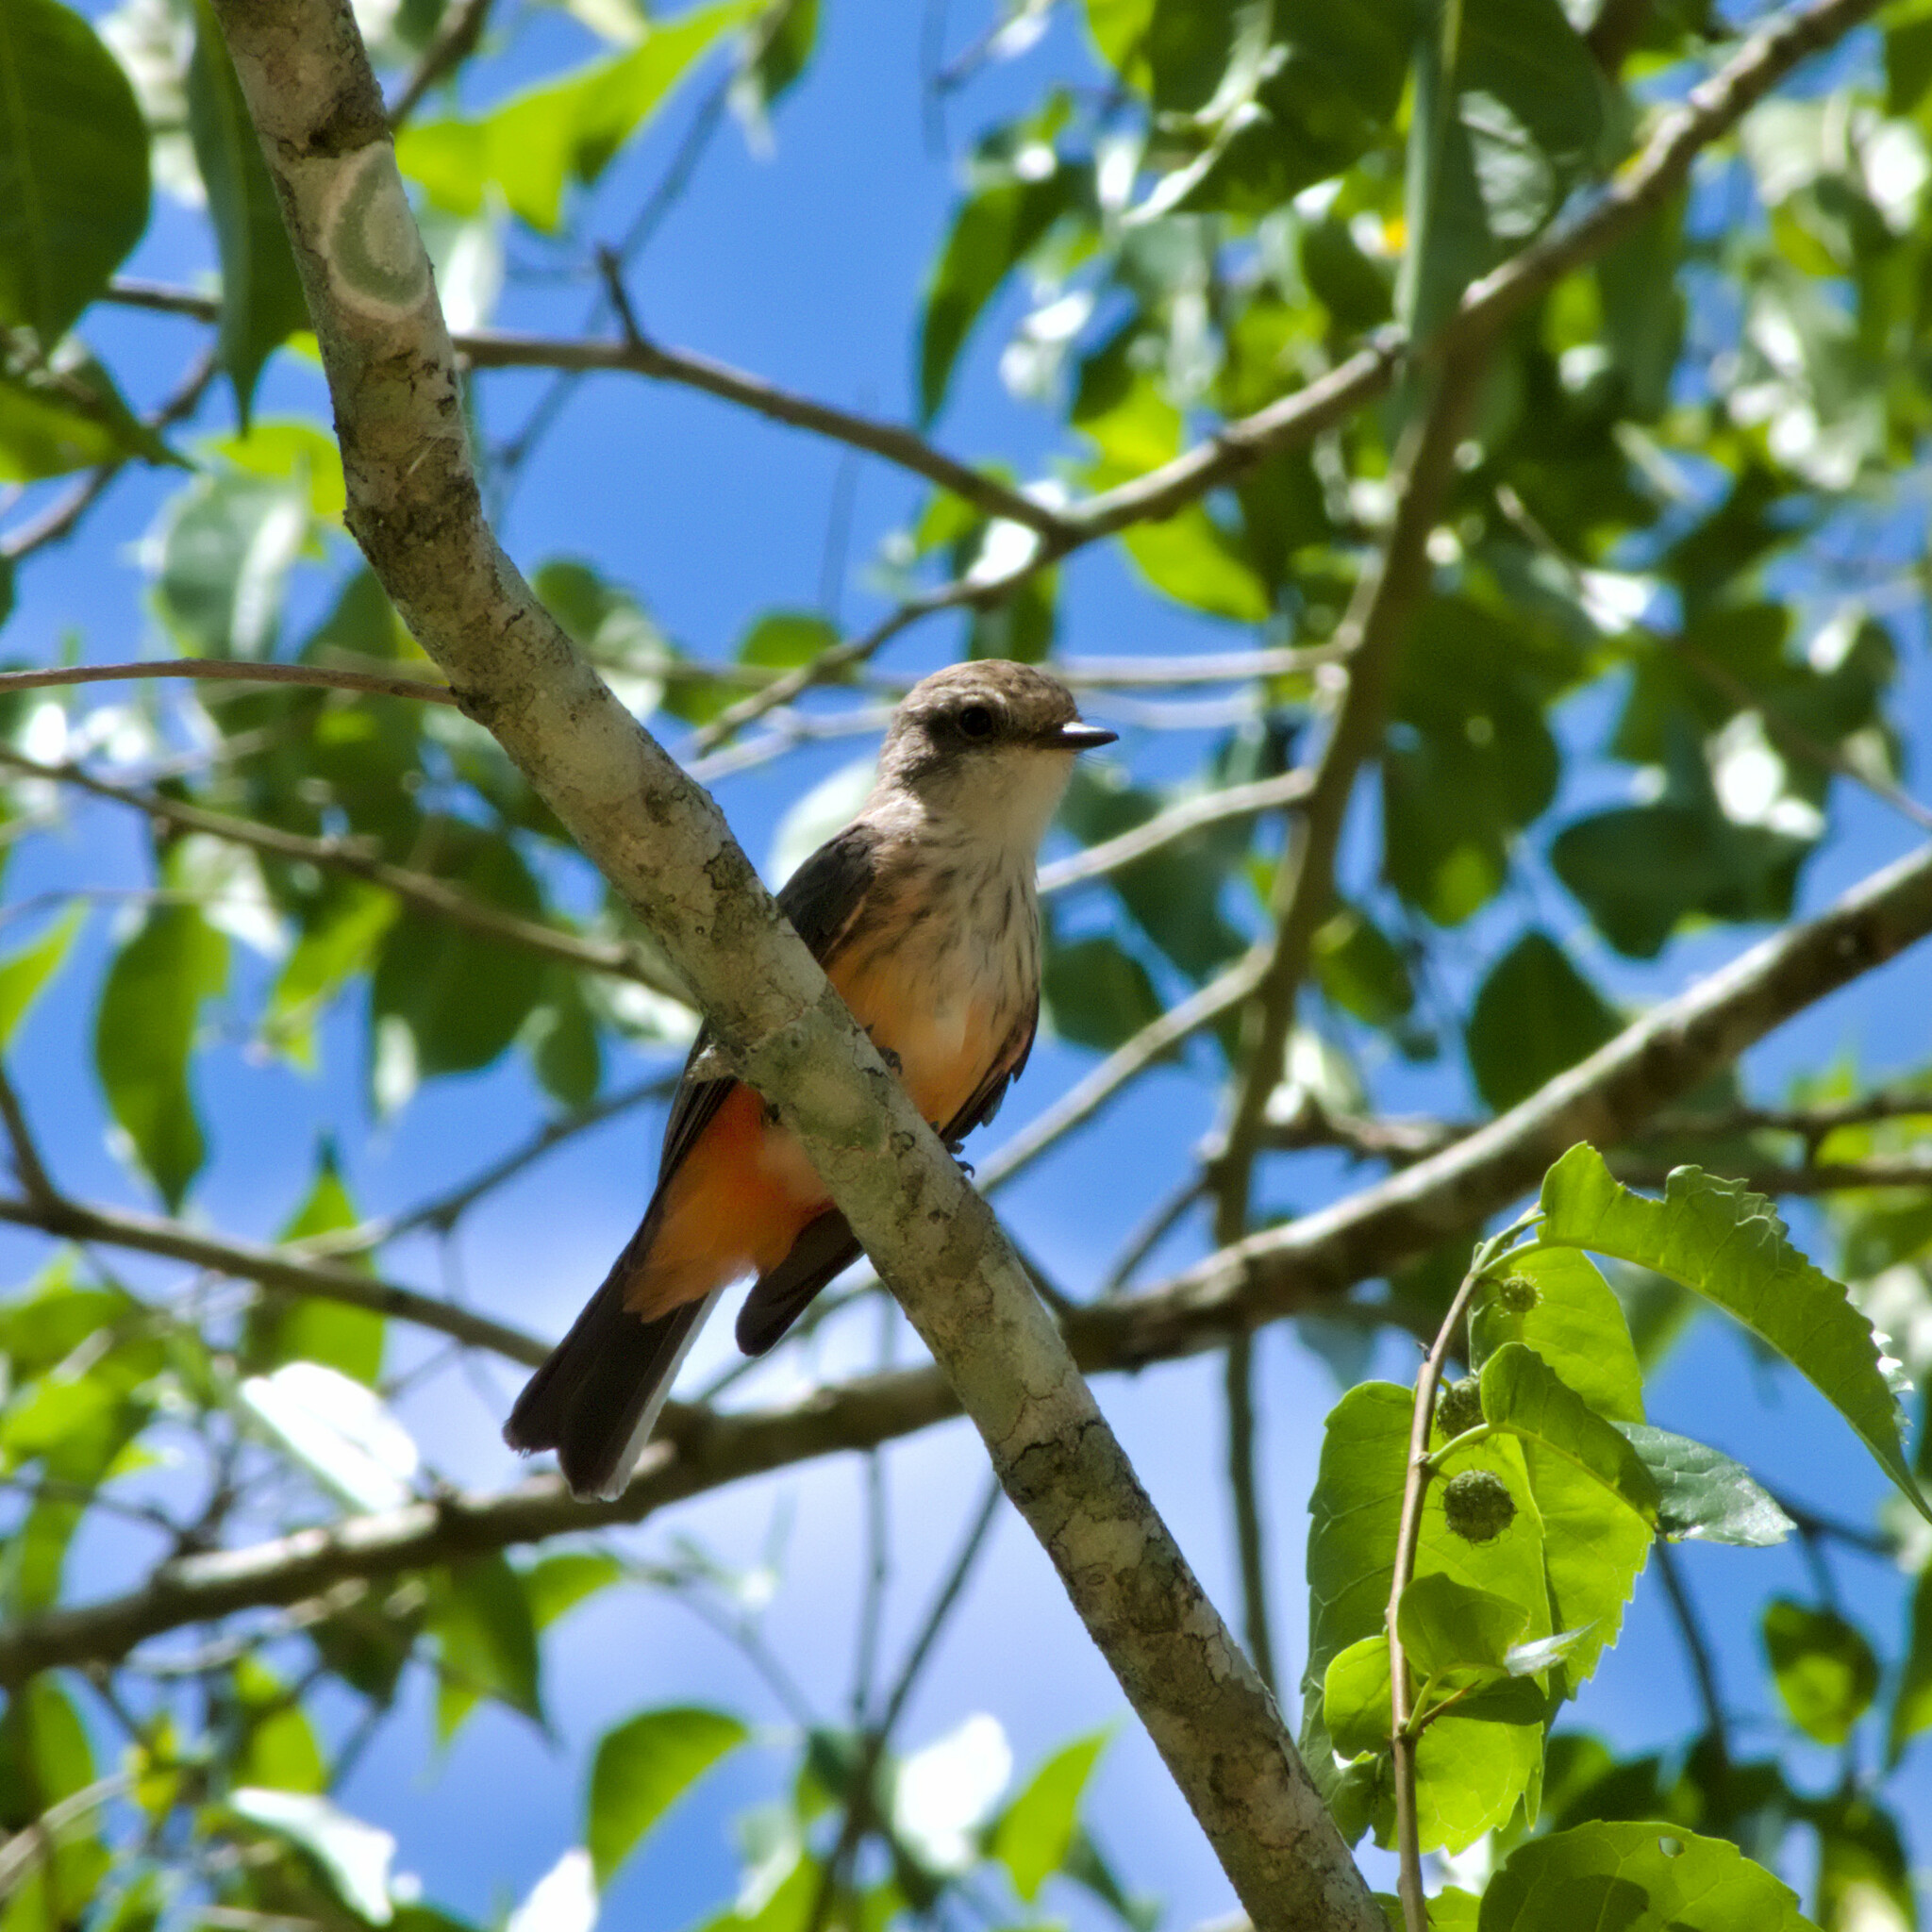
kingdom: Animalia
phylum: Chordata
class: Aves
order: Passeriformes
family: Tyrannidae
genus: Pyrocephalus
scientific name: Pyrocephalus rubinus
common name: Vermilion flycatcher
